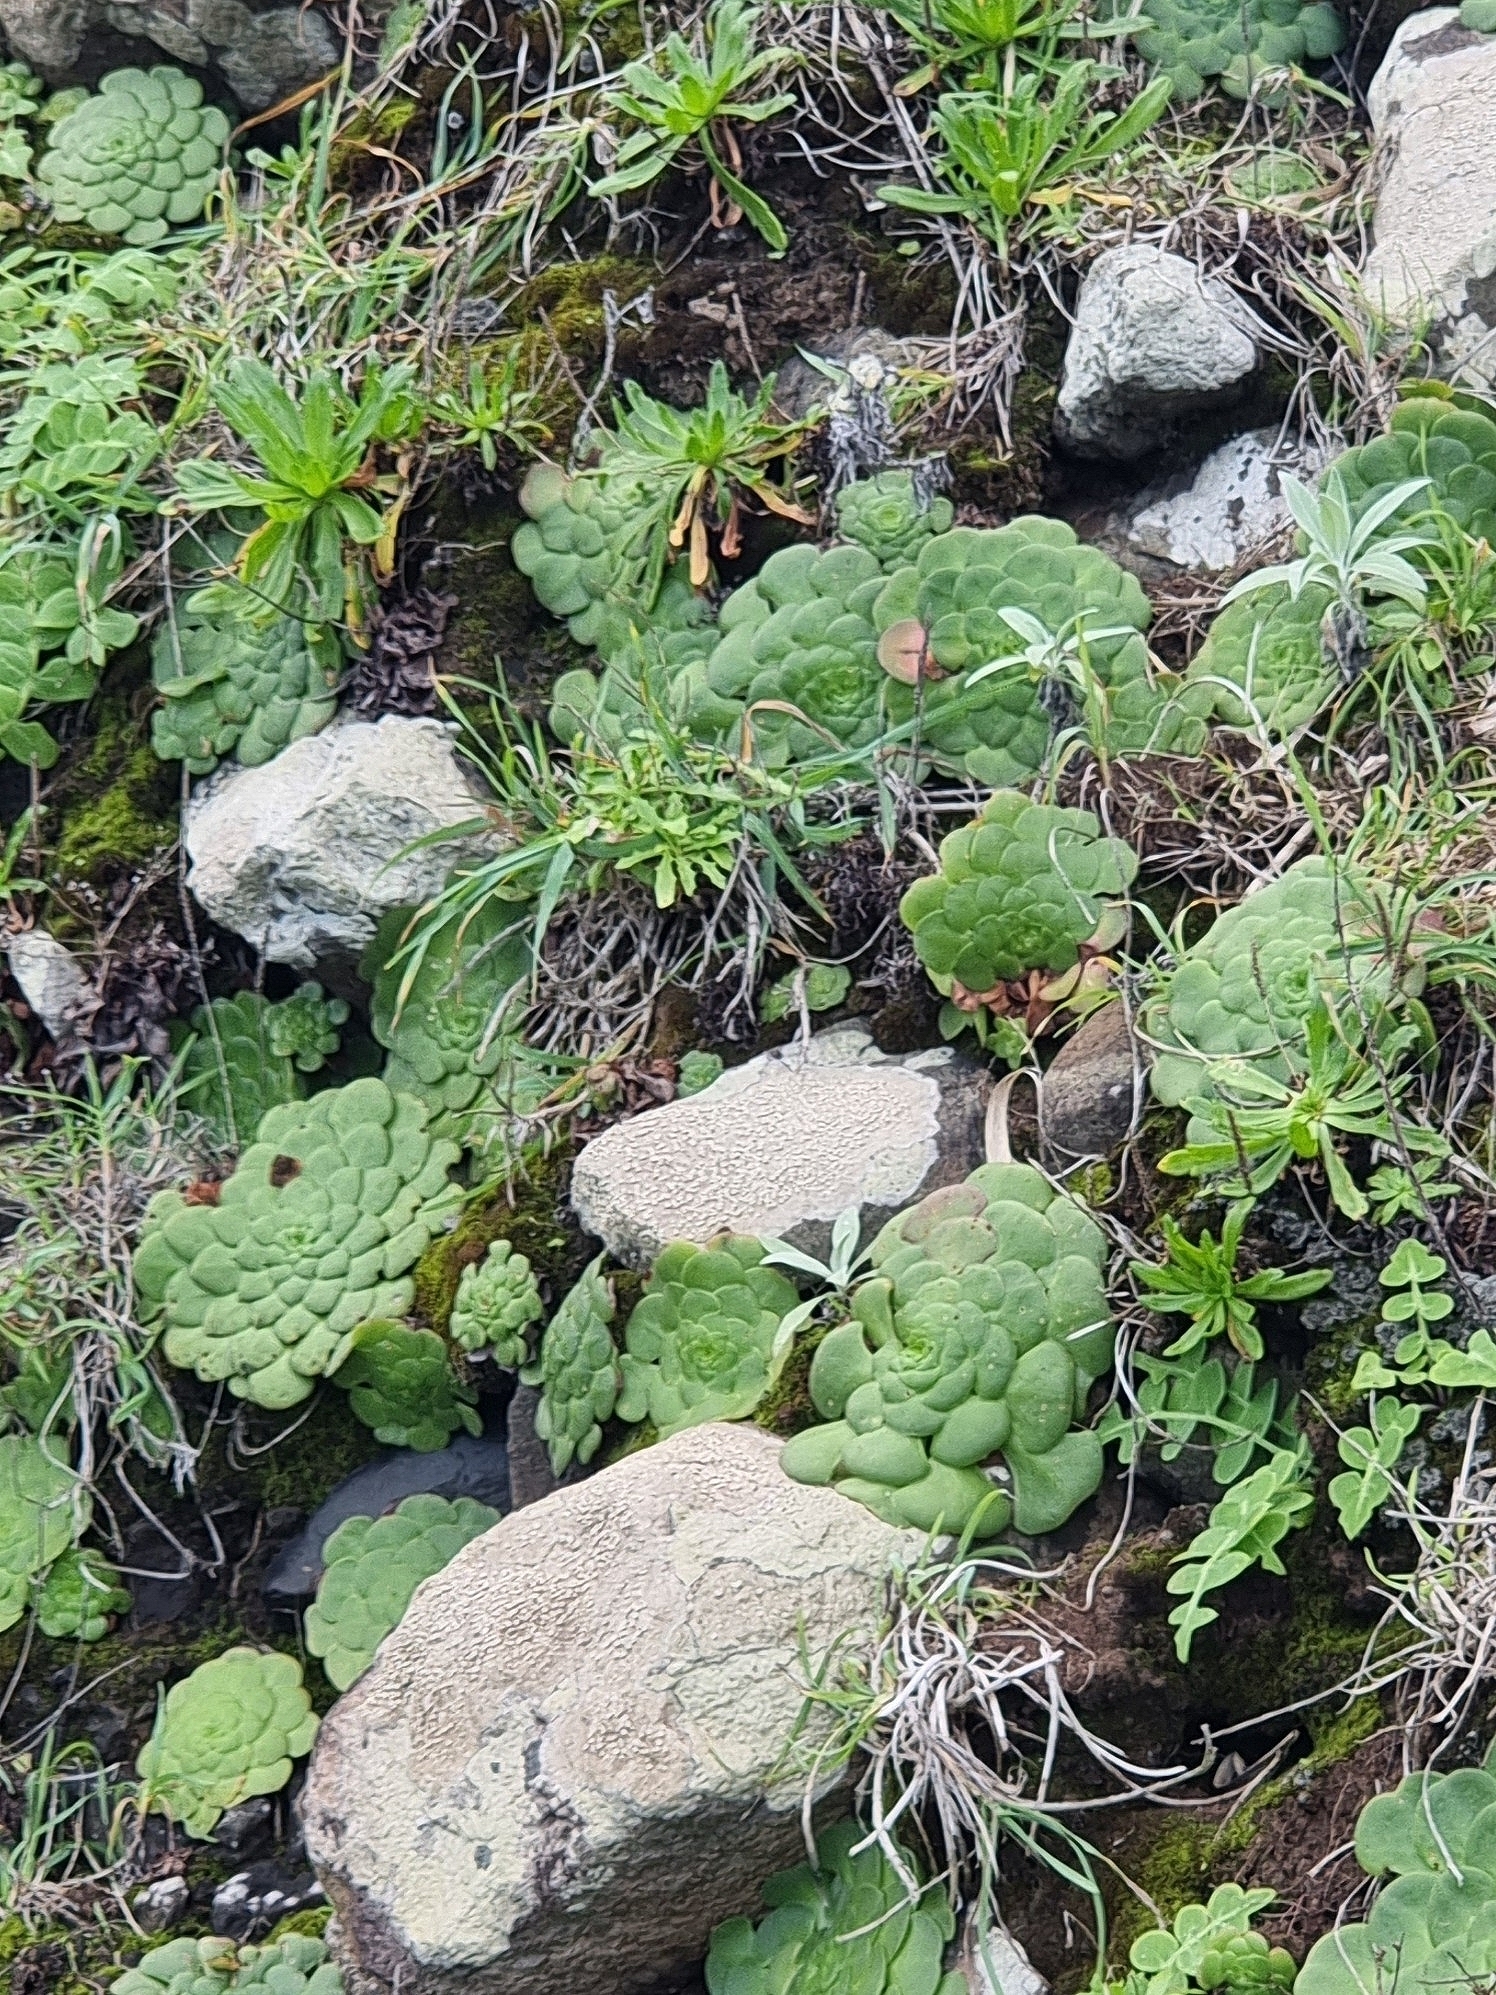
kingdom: Plantae
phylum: Tracheophyta
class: Magnoliopsida
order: Saxifragales
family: Crassulaceae
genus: Aeonium
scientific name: Aeonium glandulosum
